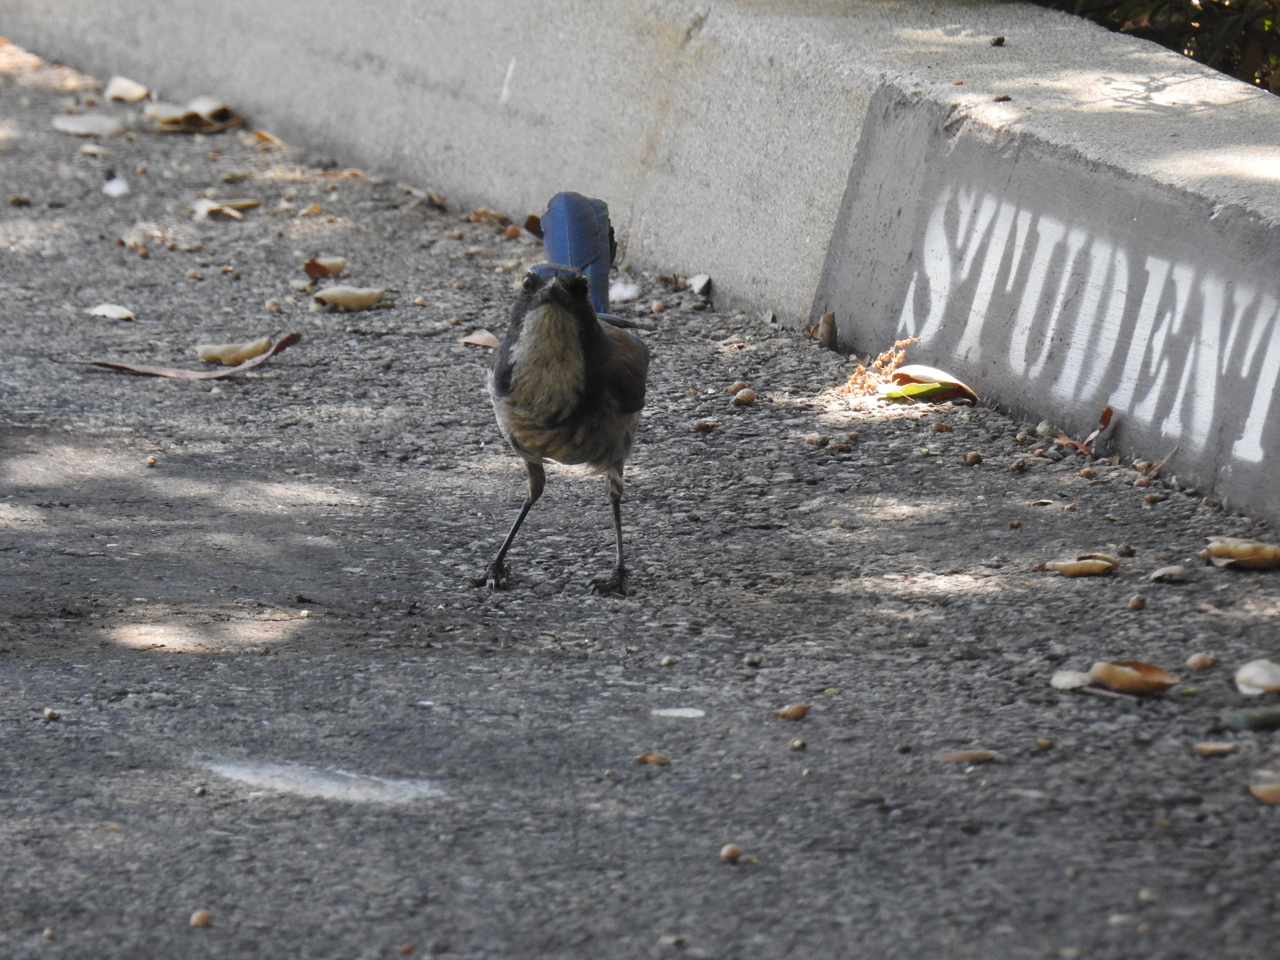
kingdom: Animalia
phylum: Chordata
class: Aves
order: Passeriformes
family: Corvidae
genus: Aphelocoma
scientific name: Aphelocoma californica
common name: California scrub-jay
